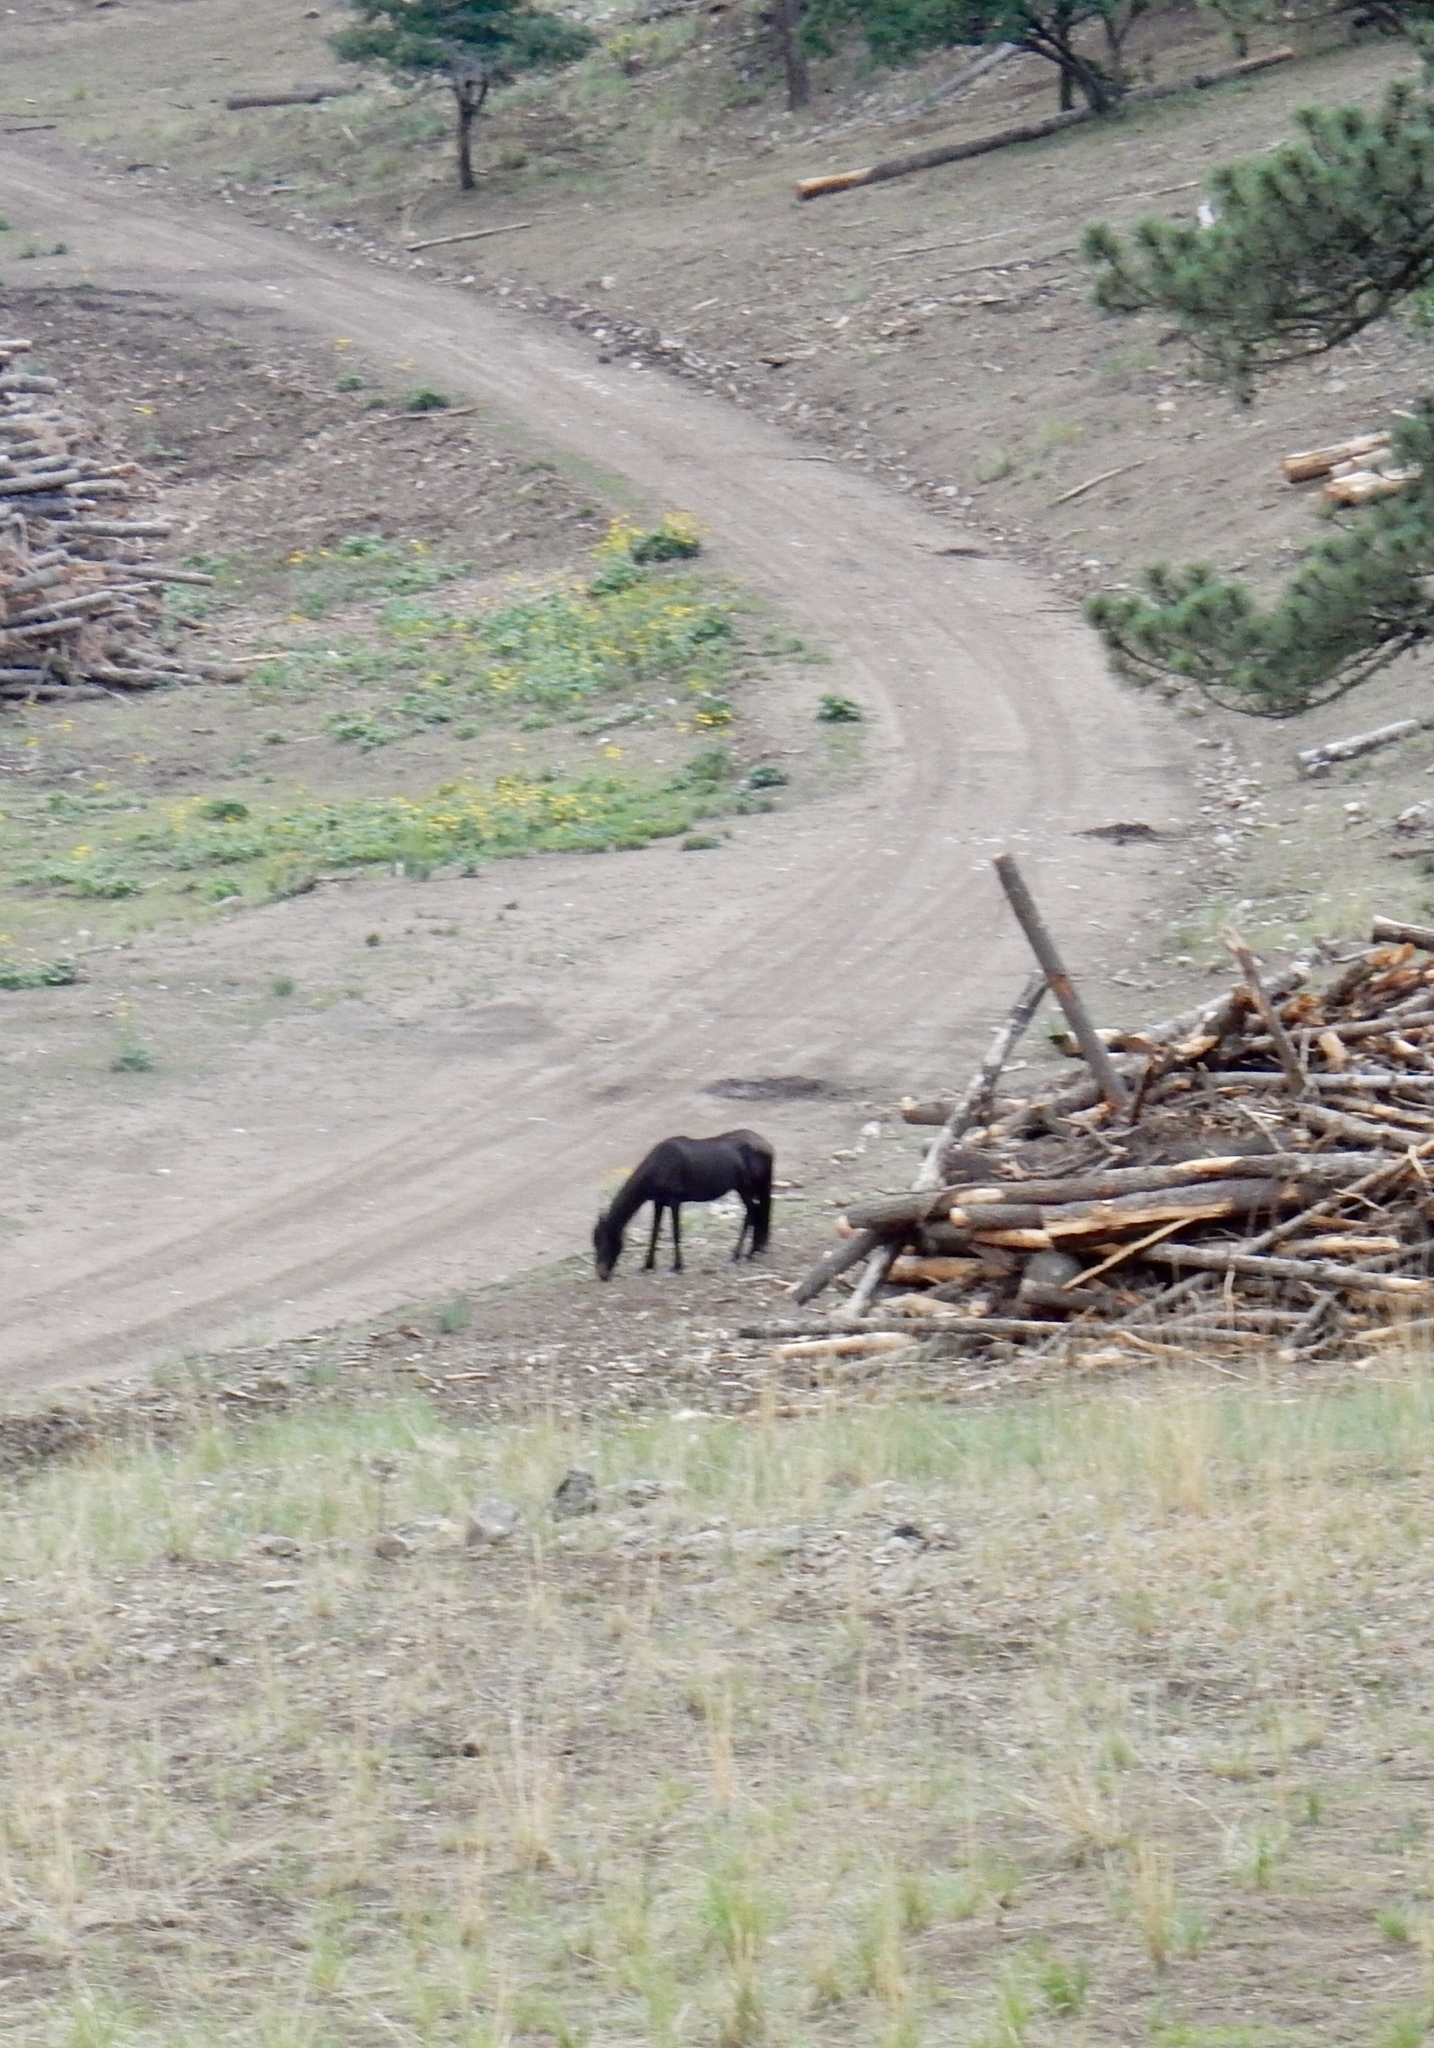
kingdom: Animalia
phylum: Chordata
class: Mammalia
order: Perissodactyla
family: Equidae
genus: Equus
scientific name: Equus caballus
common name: Horse
